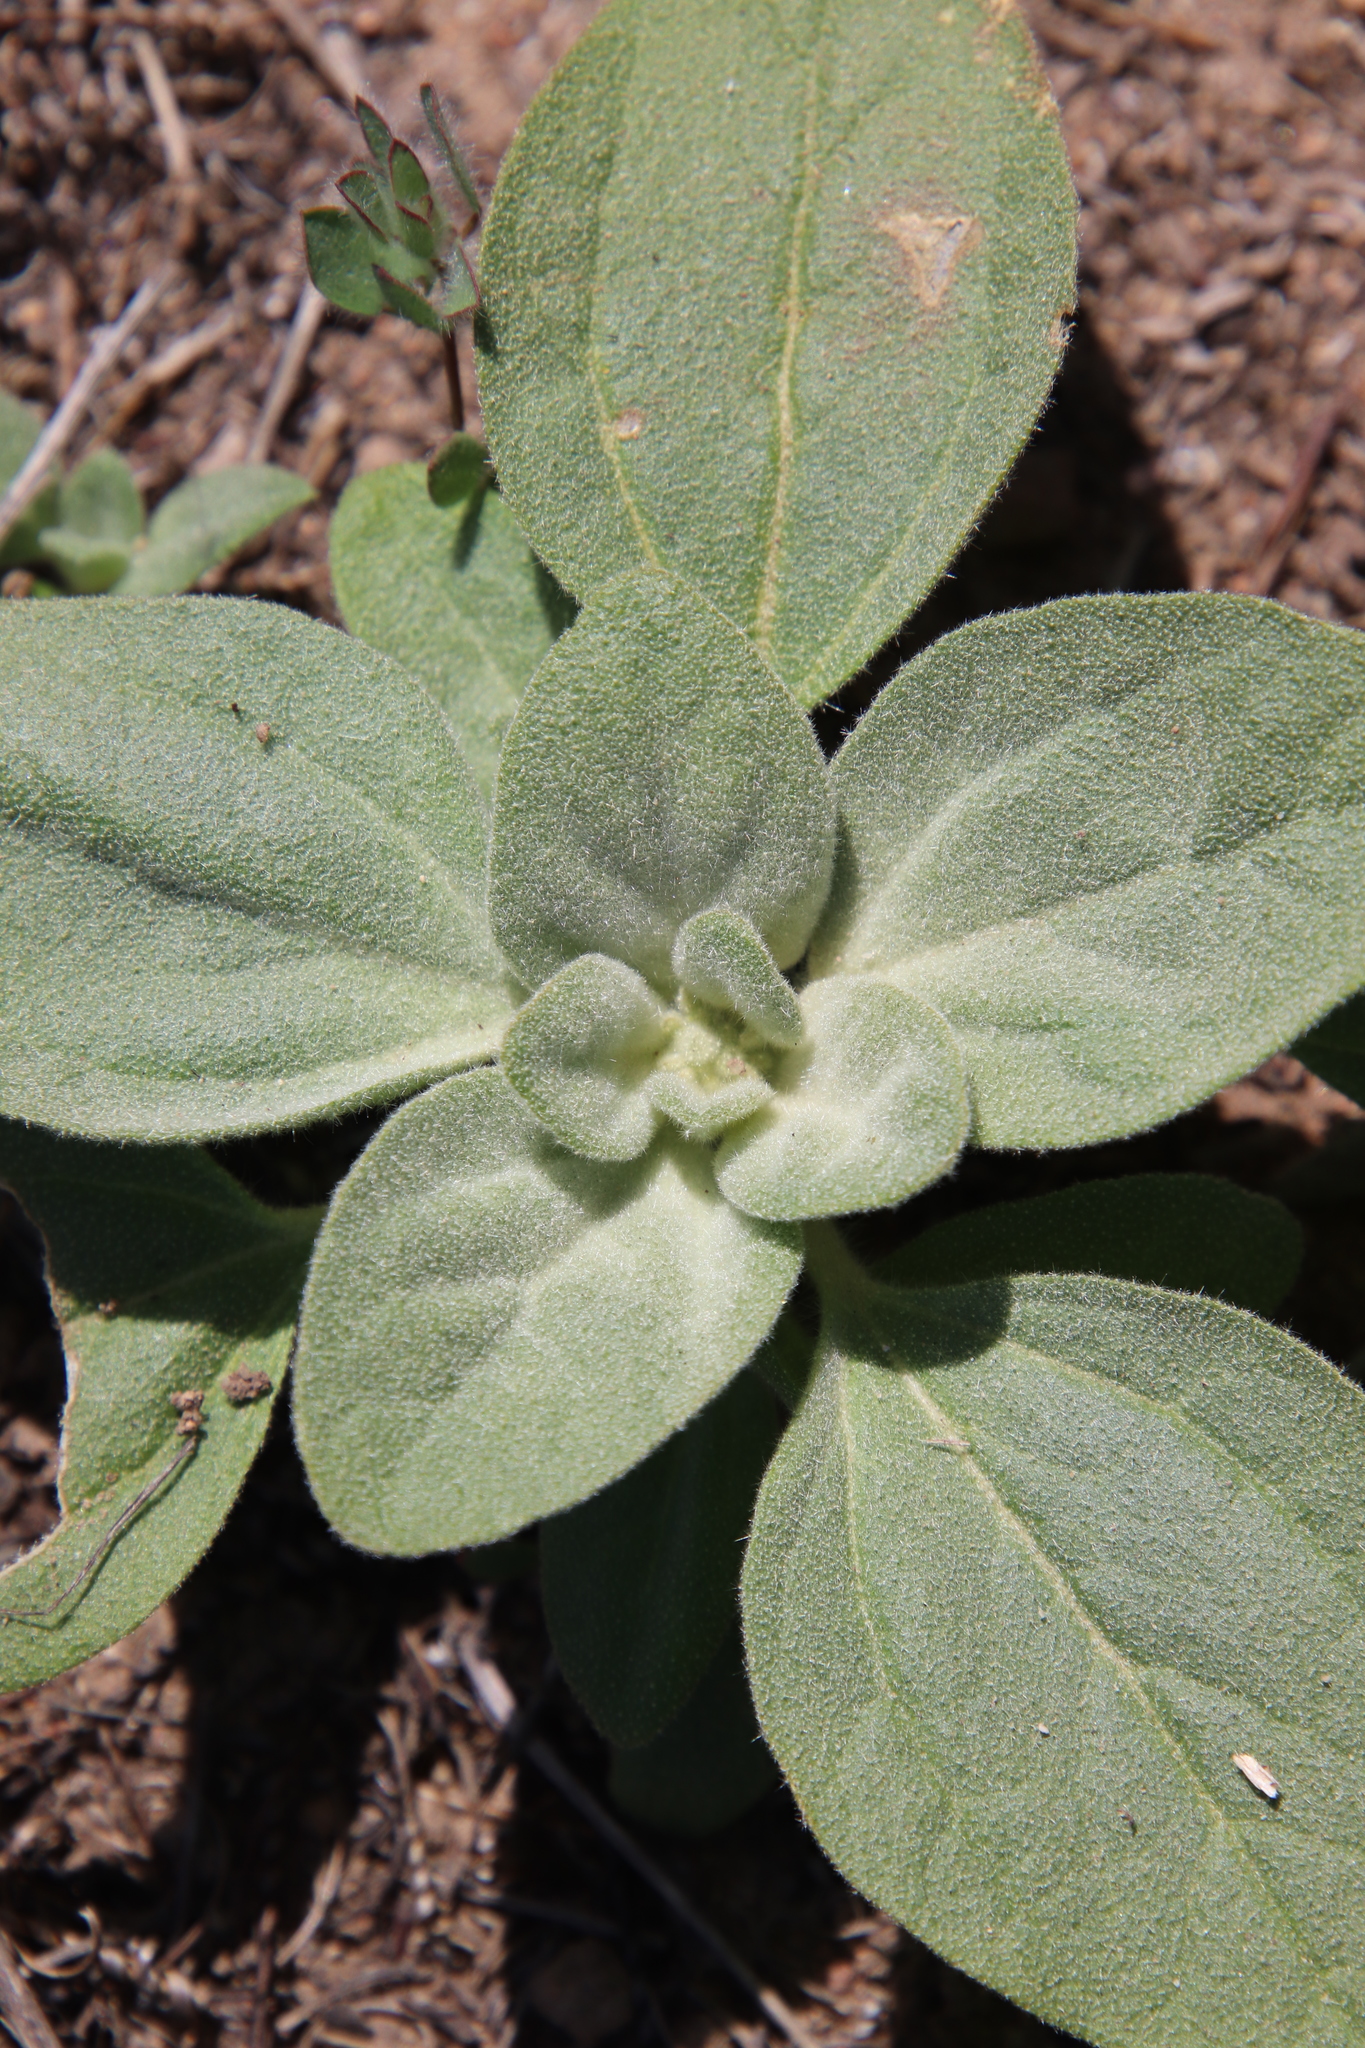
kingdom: Plantae
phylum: Tracheophyta
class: Magnoliopsida
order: Malpighiales
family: Euphorbiaceae
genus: Croton
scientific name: Croton setiger
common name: Dove weed
